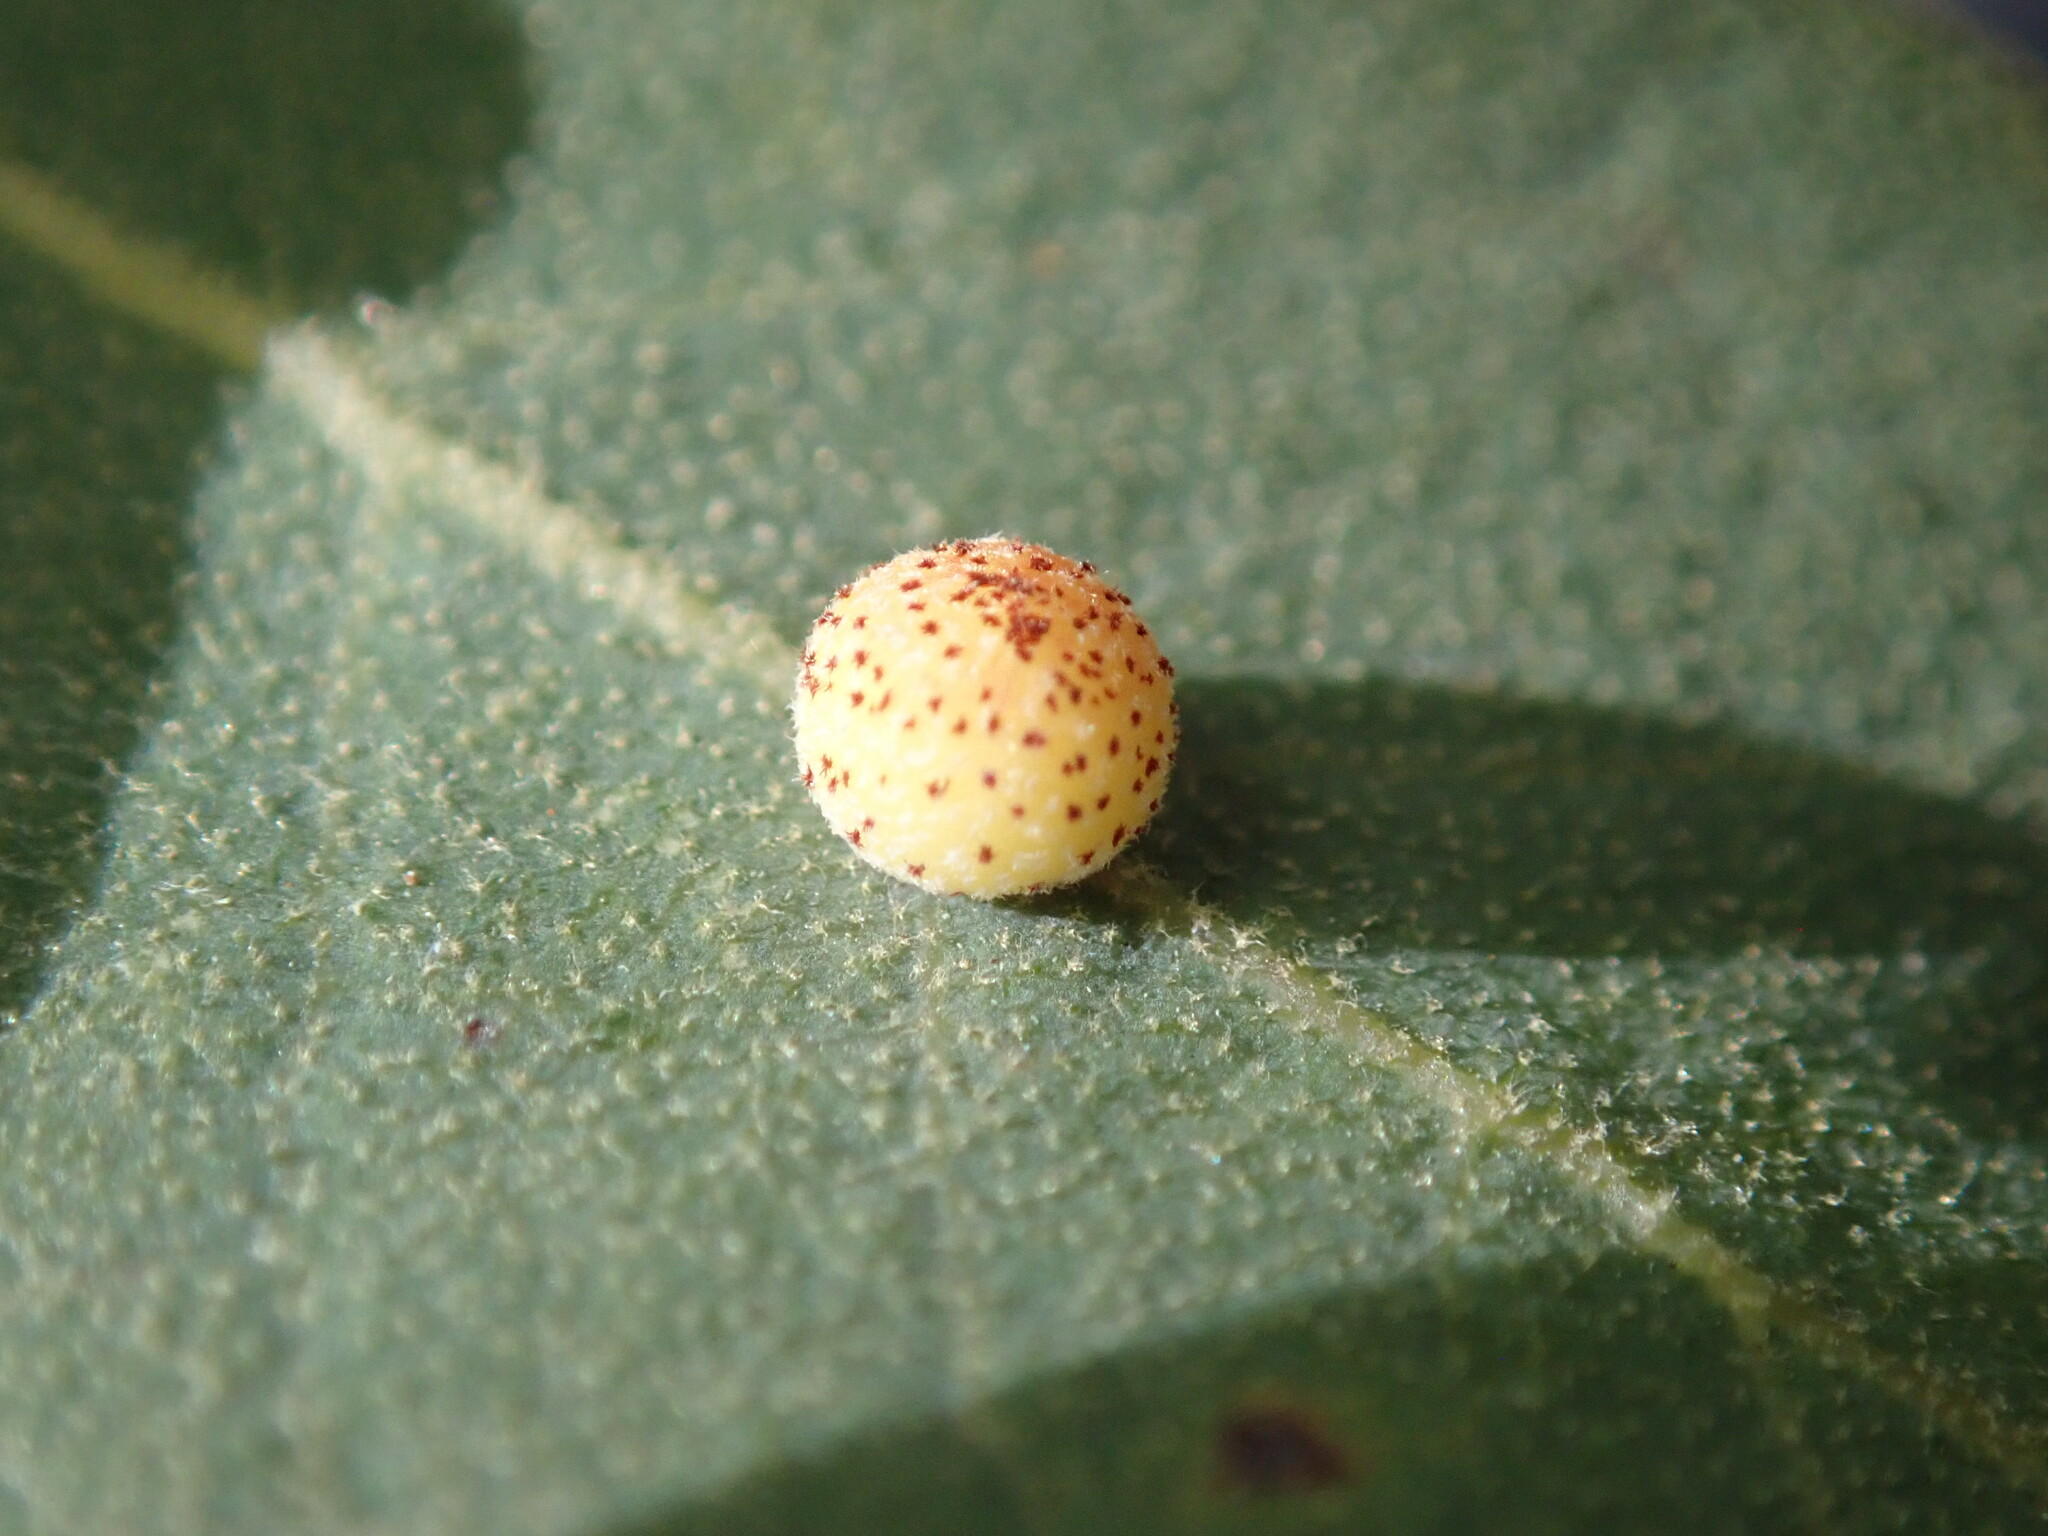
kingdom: Animalia
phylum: Arthropoda
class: Insecta
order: Hymenoptera
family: Cynipidae
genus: Cynips
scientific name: Cynips Antron tomkursari
